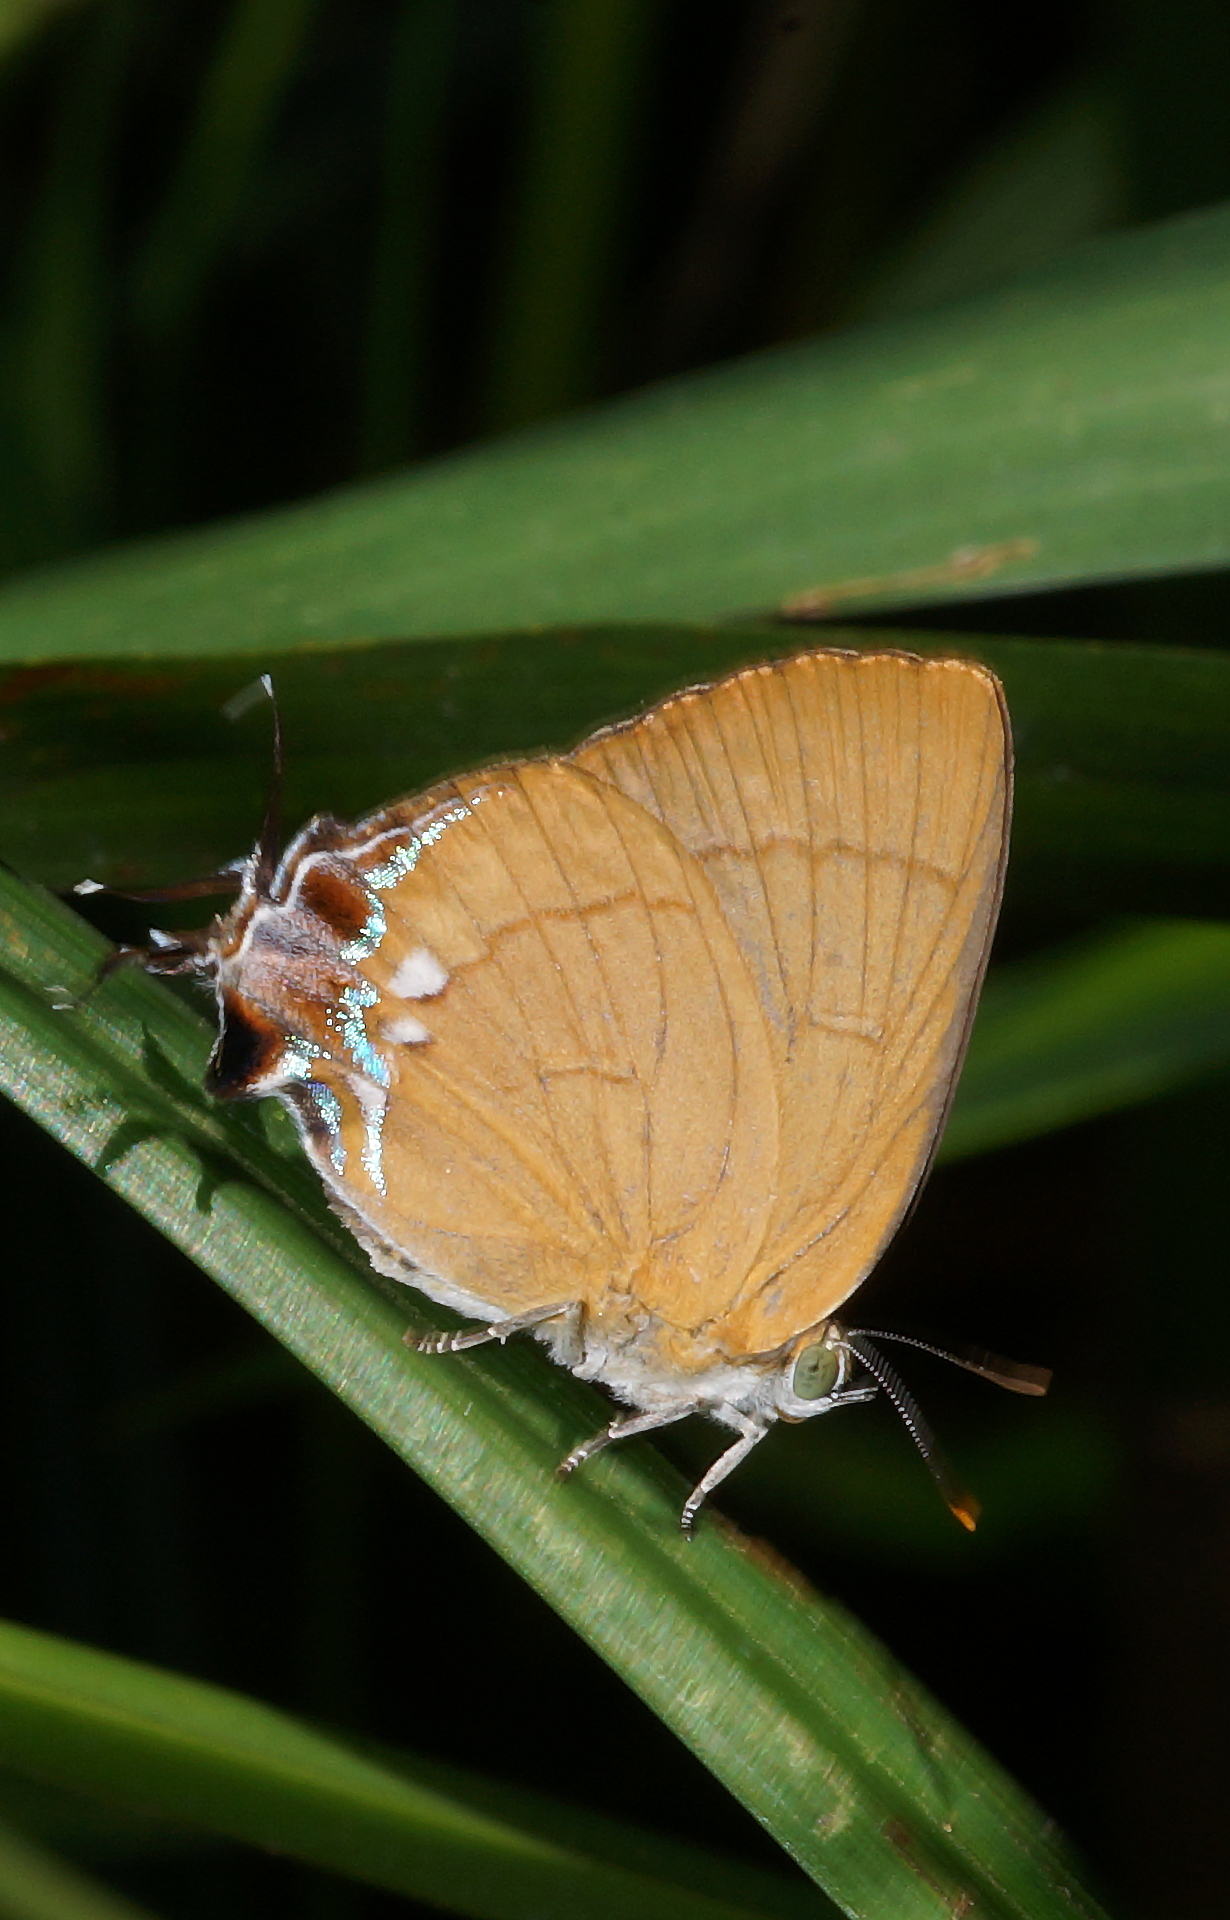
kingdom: Animalia
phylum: Arthropoda
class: Insecta
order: Lepidoptera
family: Lycaenidae
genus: Remelana
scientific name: Remelana jangala
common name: Chocolate royal
